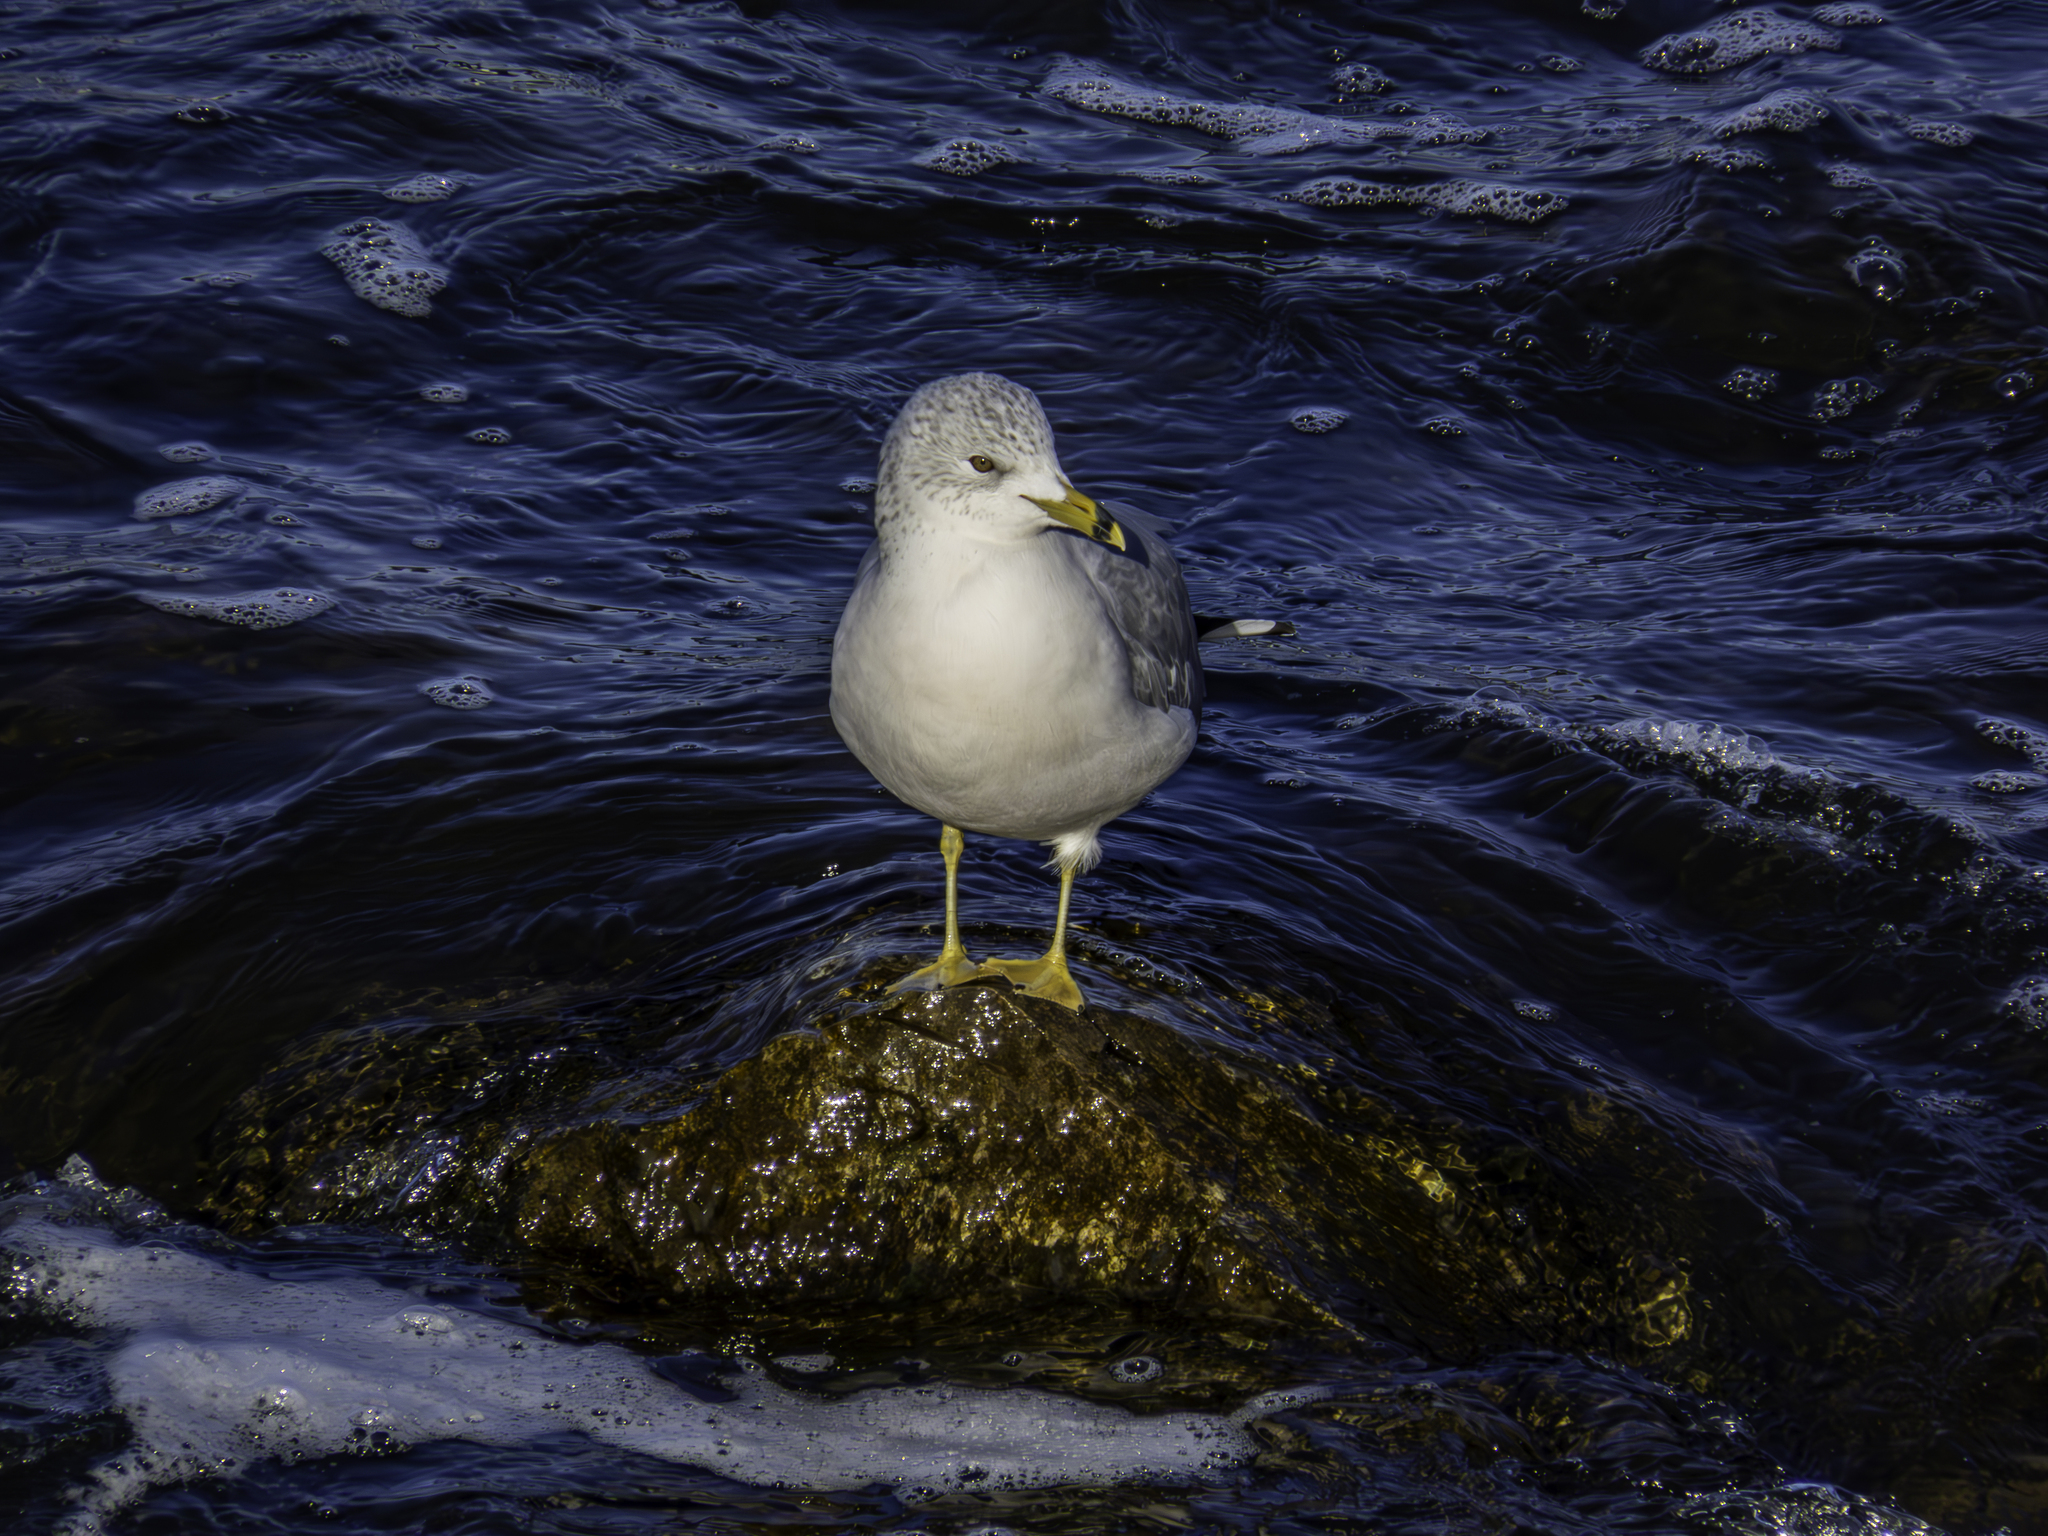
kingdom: Animalia
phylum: Chordata
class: Aves
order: Charadriiformes
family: Laridae
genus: Larus
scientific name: Larus delawarensis
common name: Ring-billed gull
